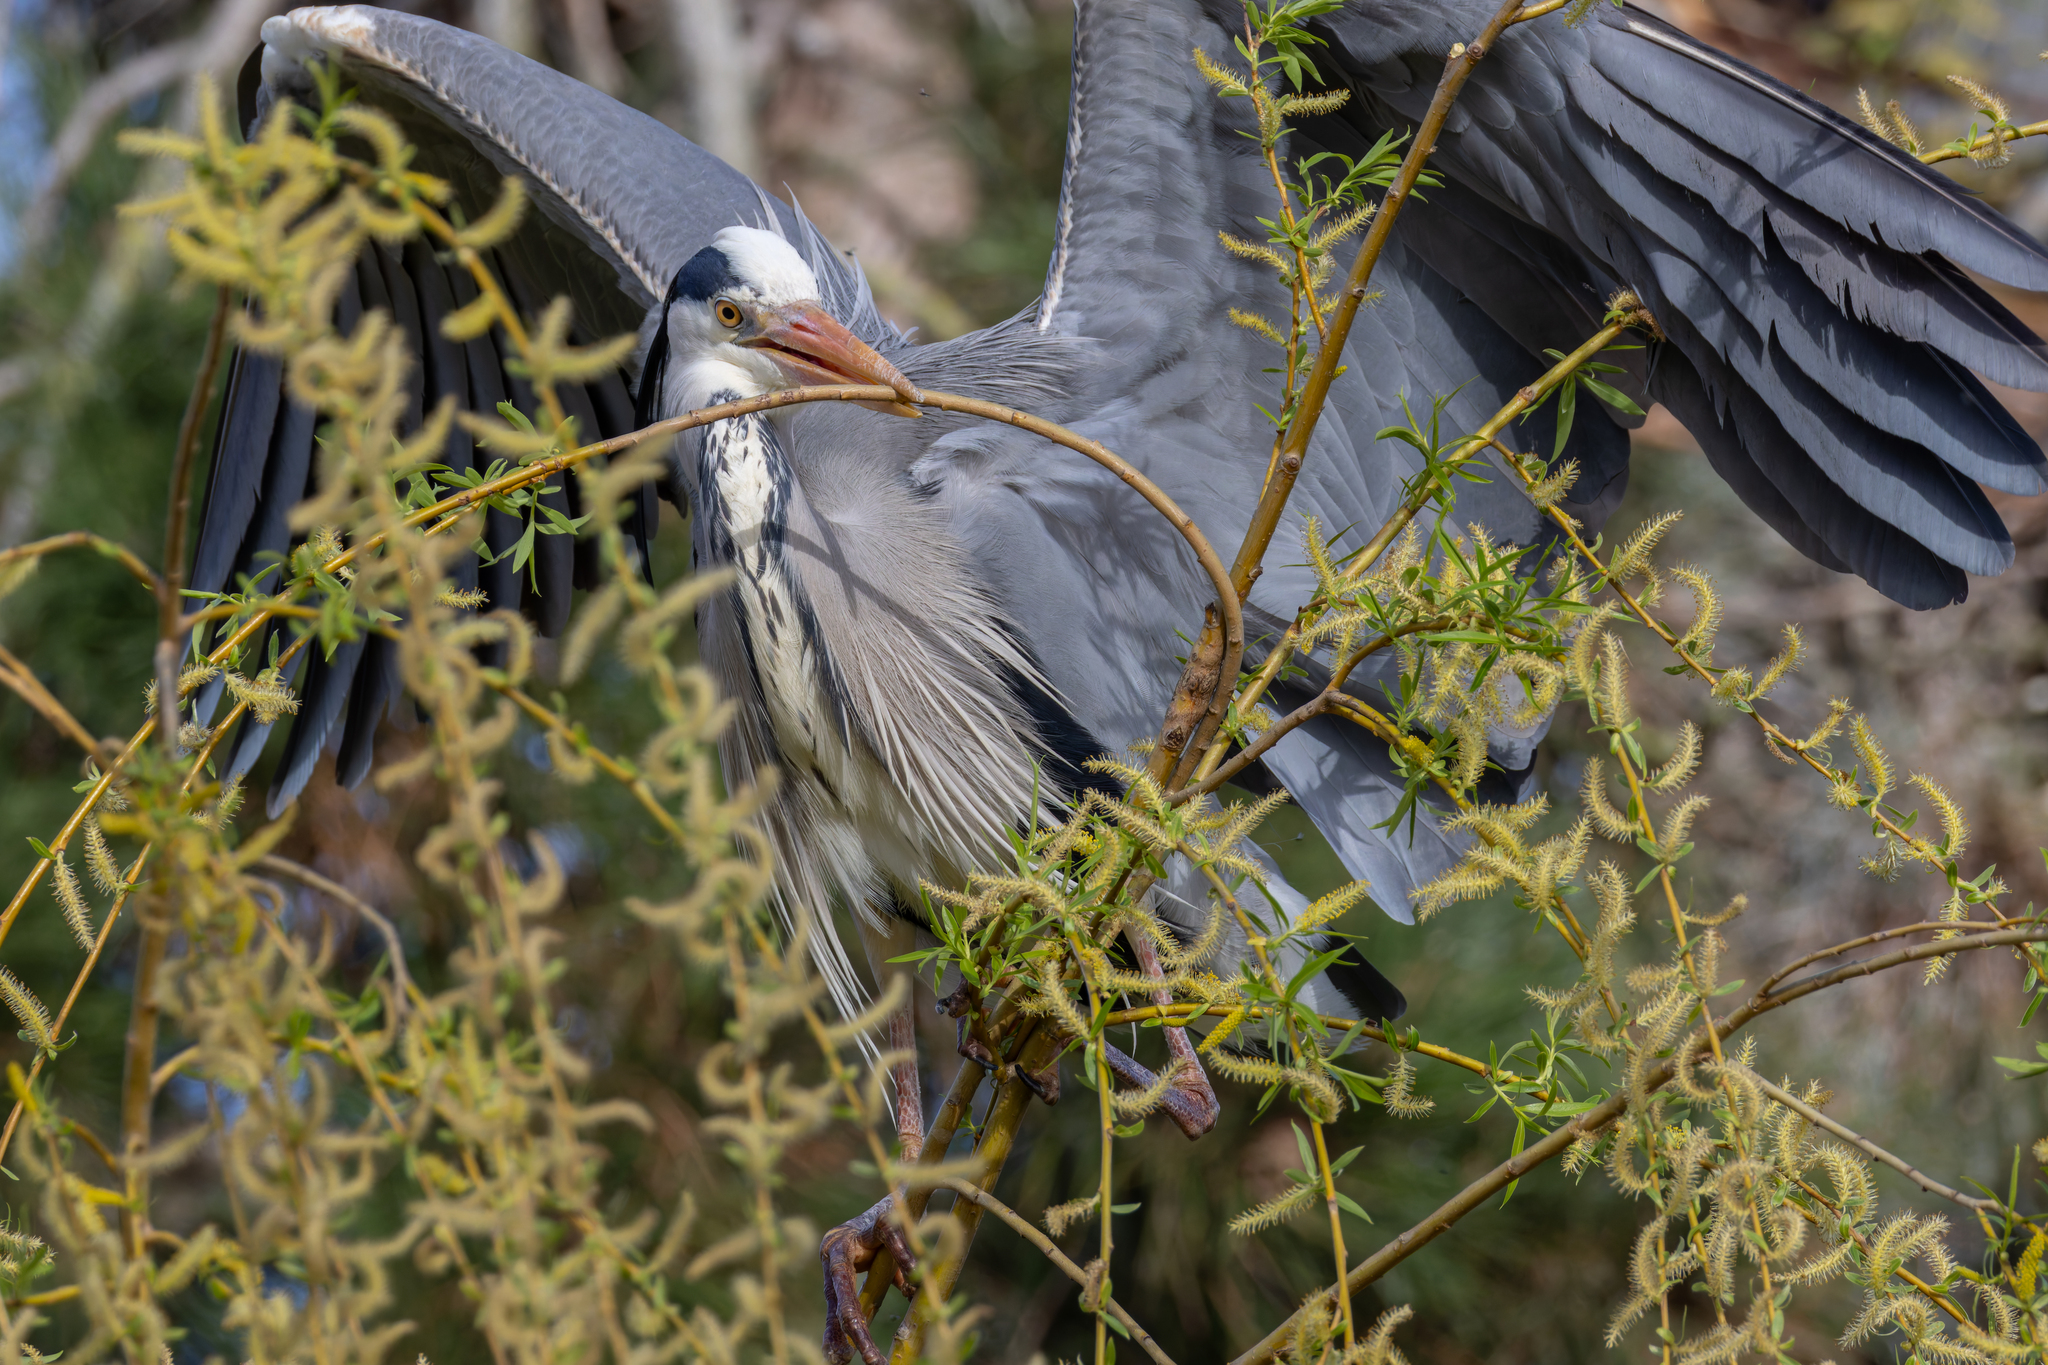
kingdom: Animalia
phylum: Chordata
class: Aves
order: Pelecaniformes
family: Ardeidae
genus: Ardea
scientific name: Ardea cinerea
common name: Grey heron
